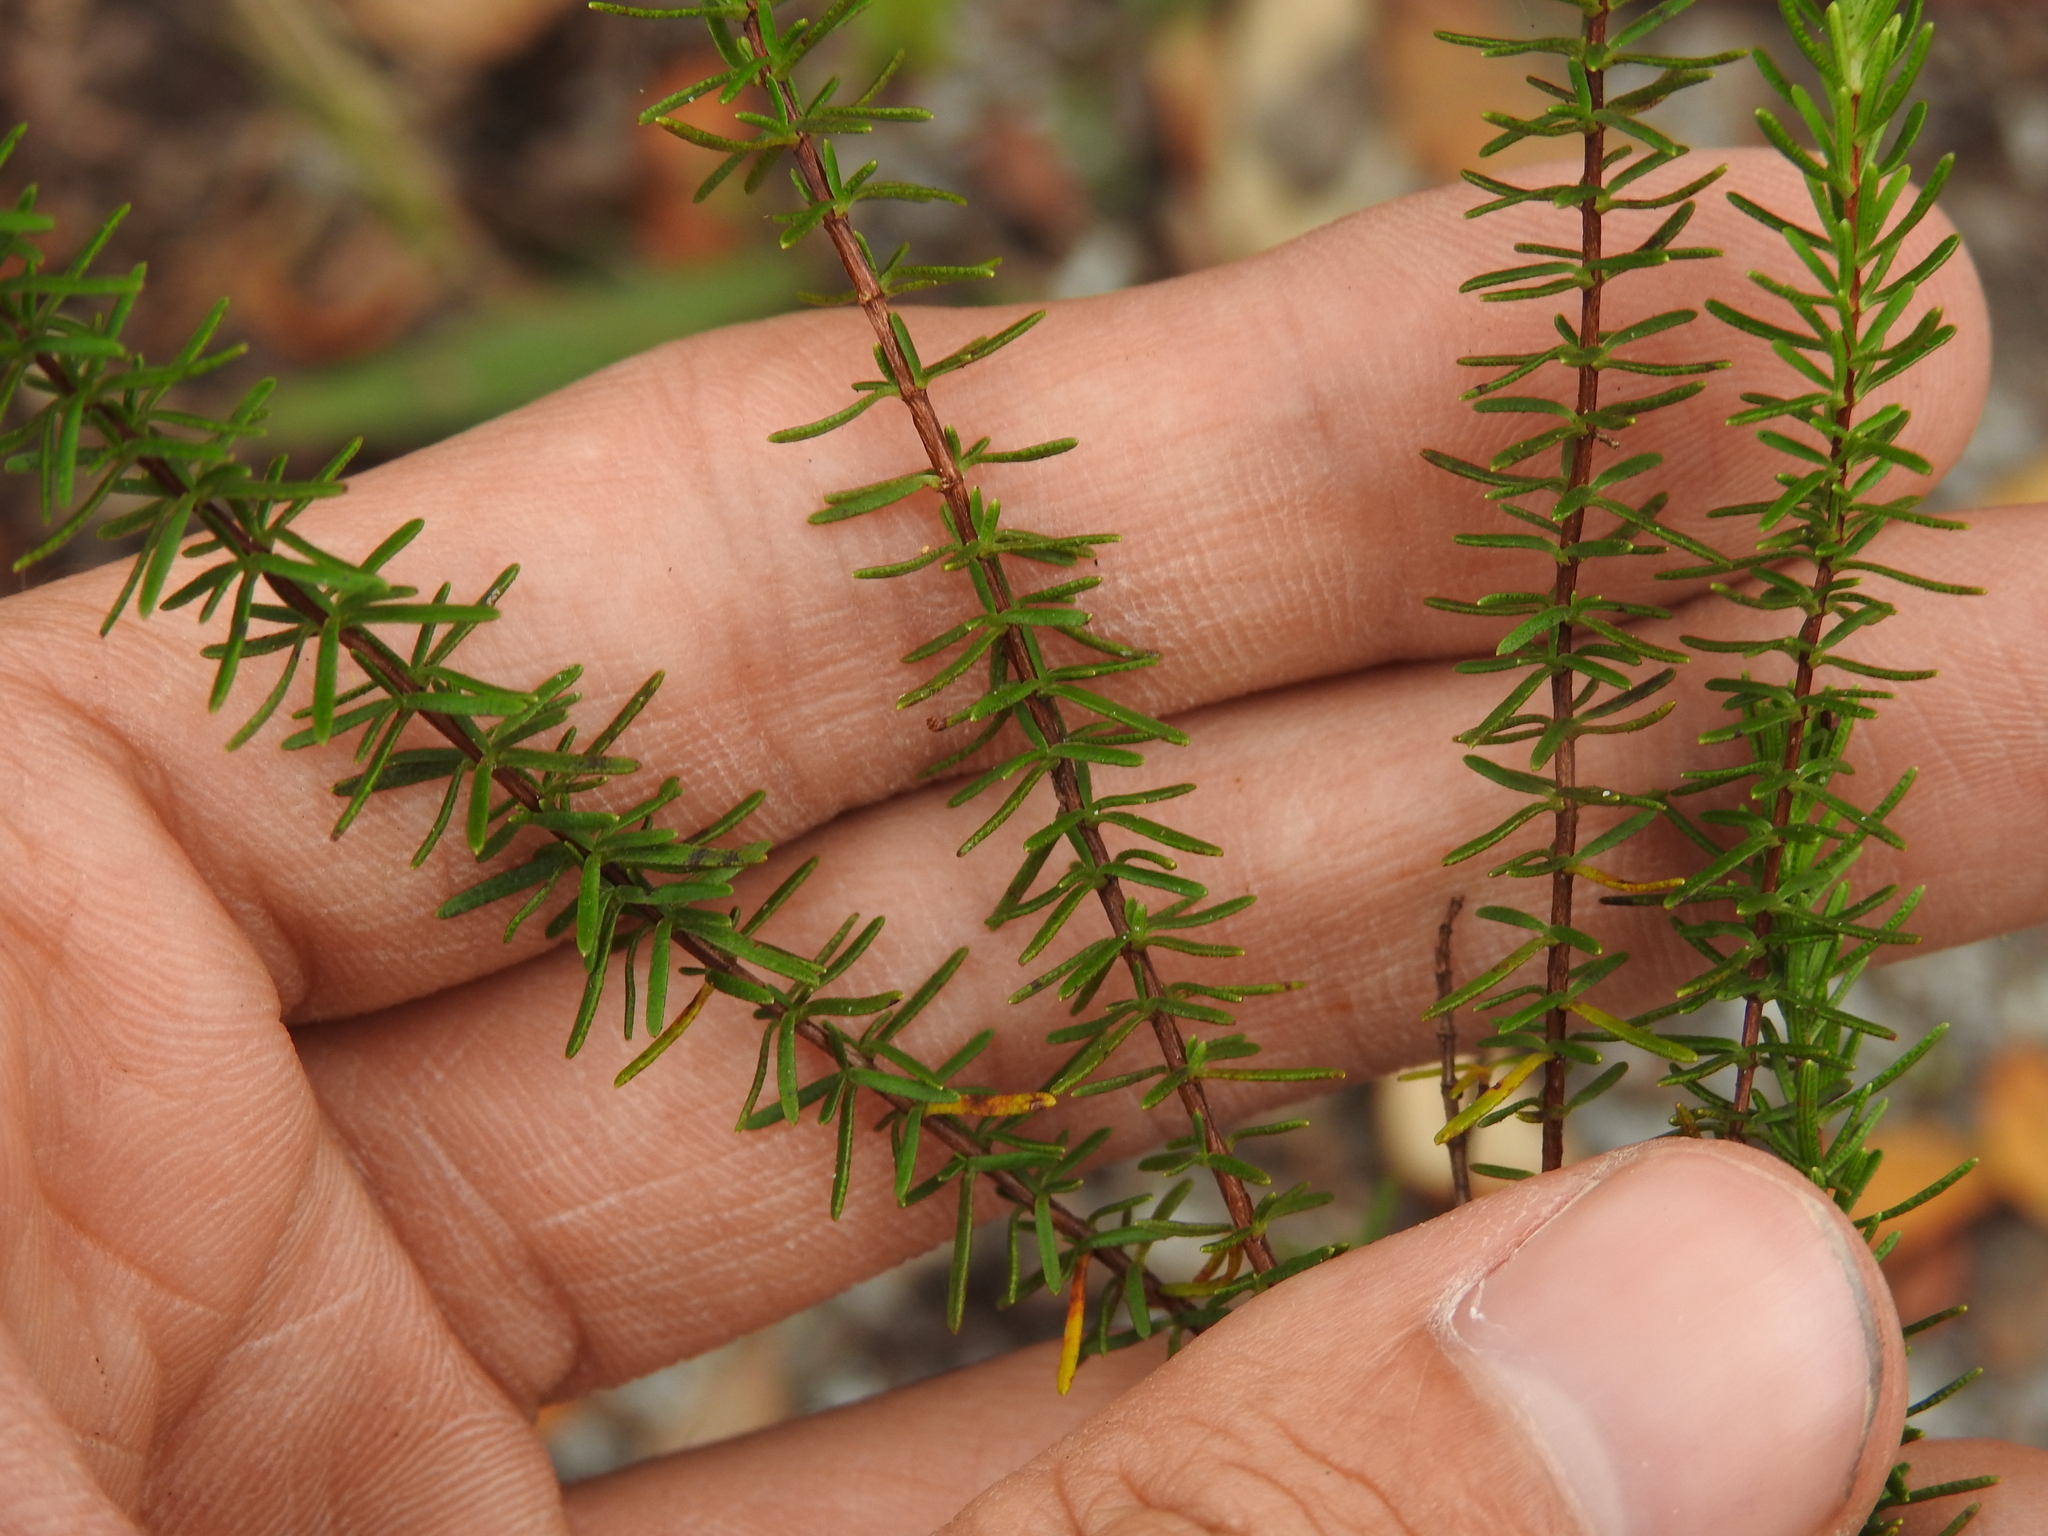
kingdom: Plantae
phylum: Tracheophyta
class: Magnoliopsida
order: Malpighiales
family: Hypericaceae
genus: Hypericum
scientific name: Hypericum tenuifolium
